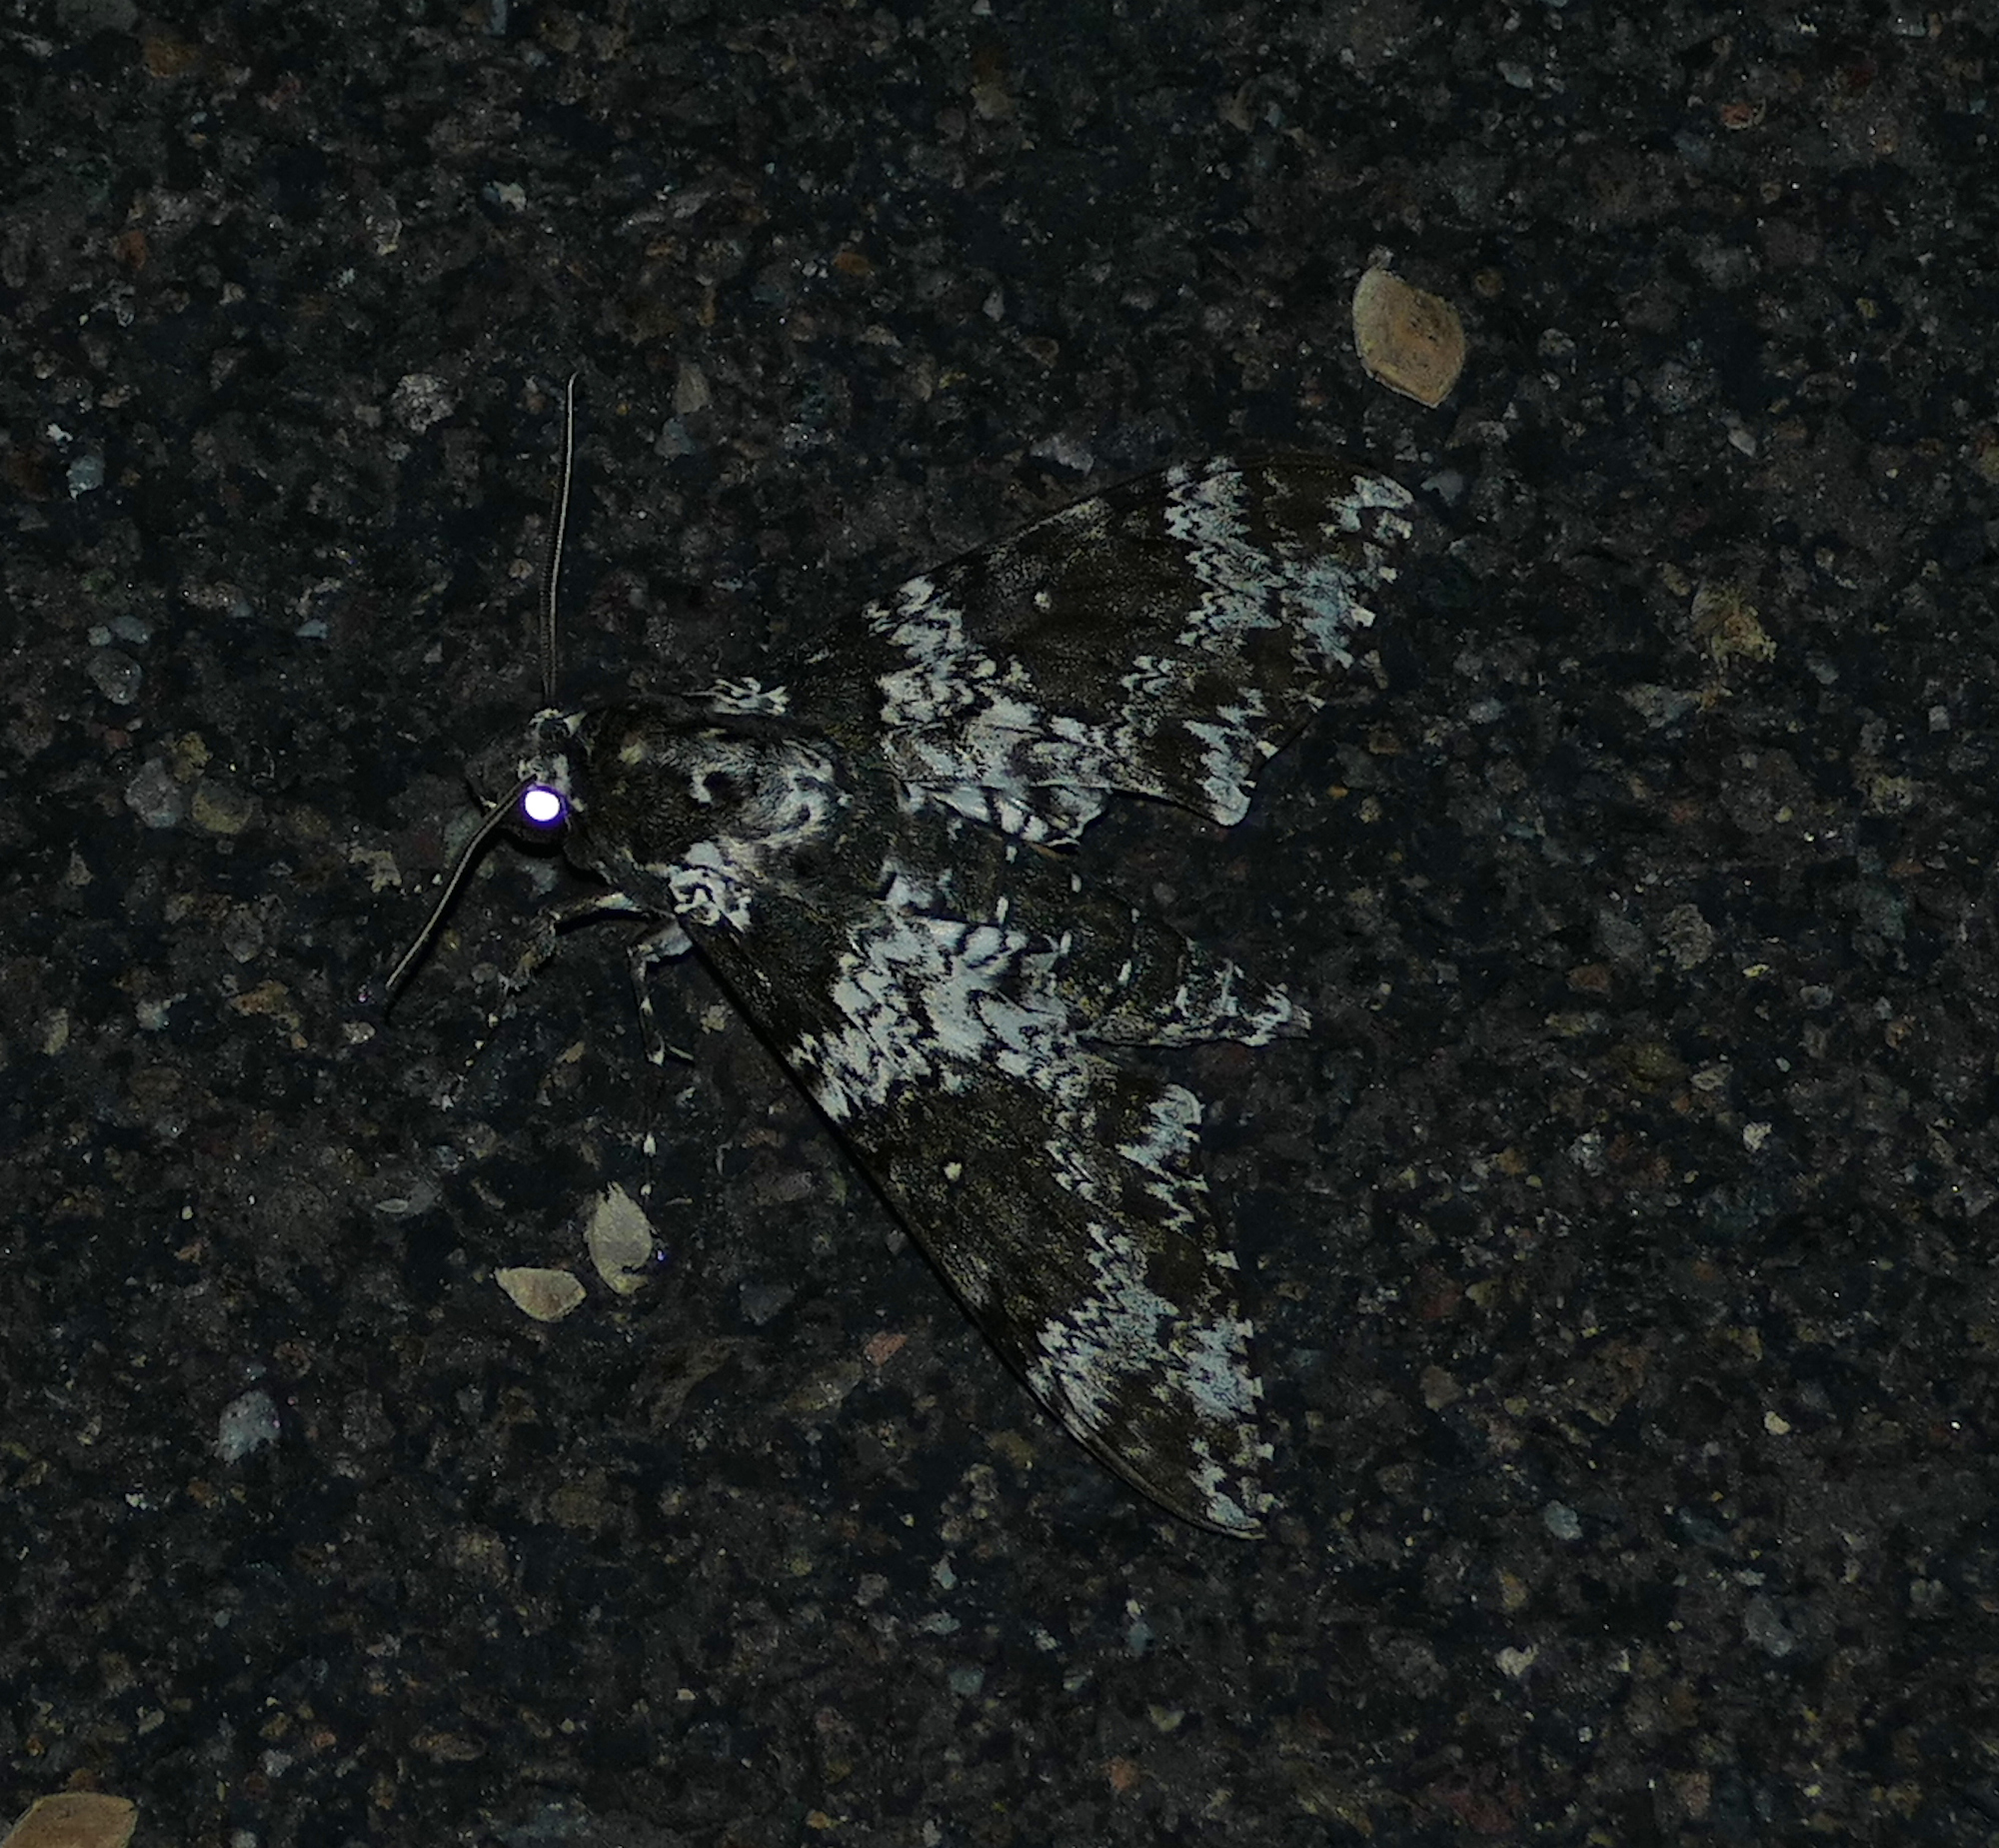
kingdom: Animalia
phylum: Arthropoda
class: Insecta
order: Lepidoptera
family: Sphingidae
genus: Manduca
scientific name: Manduca rustica
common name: Rustic sphinx
